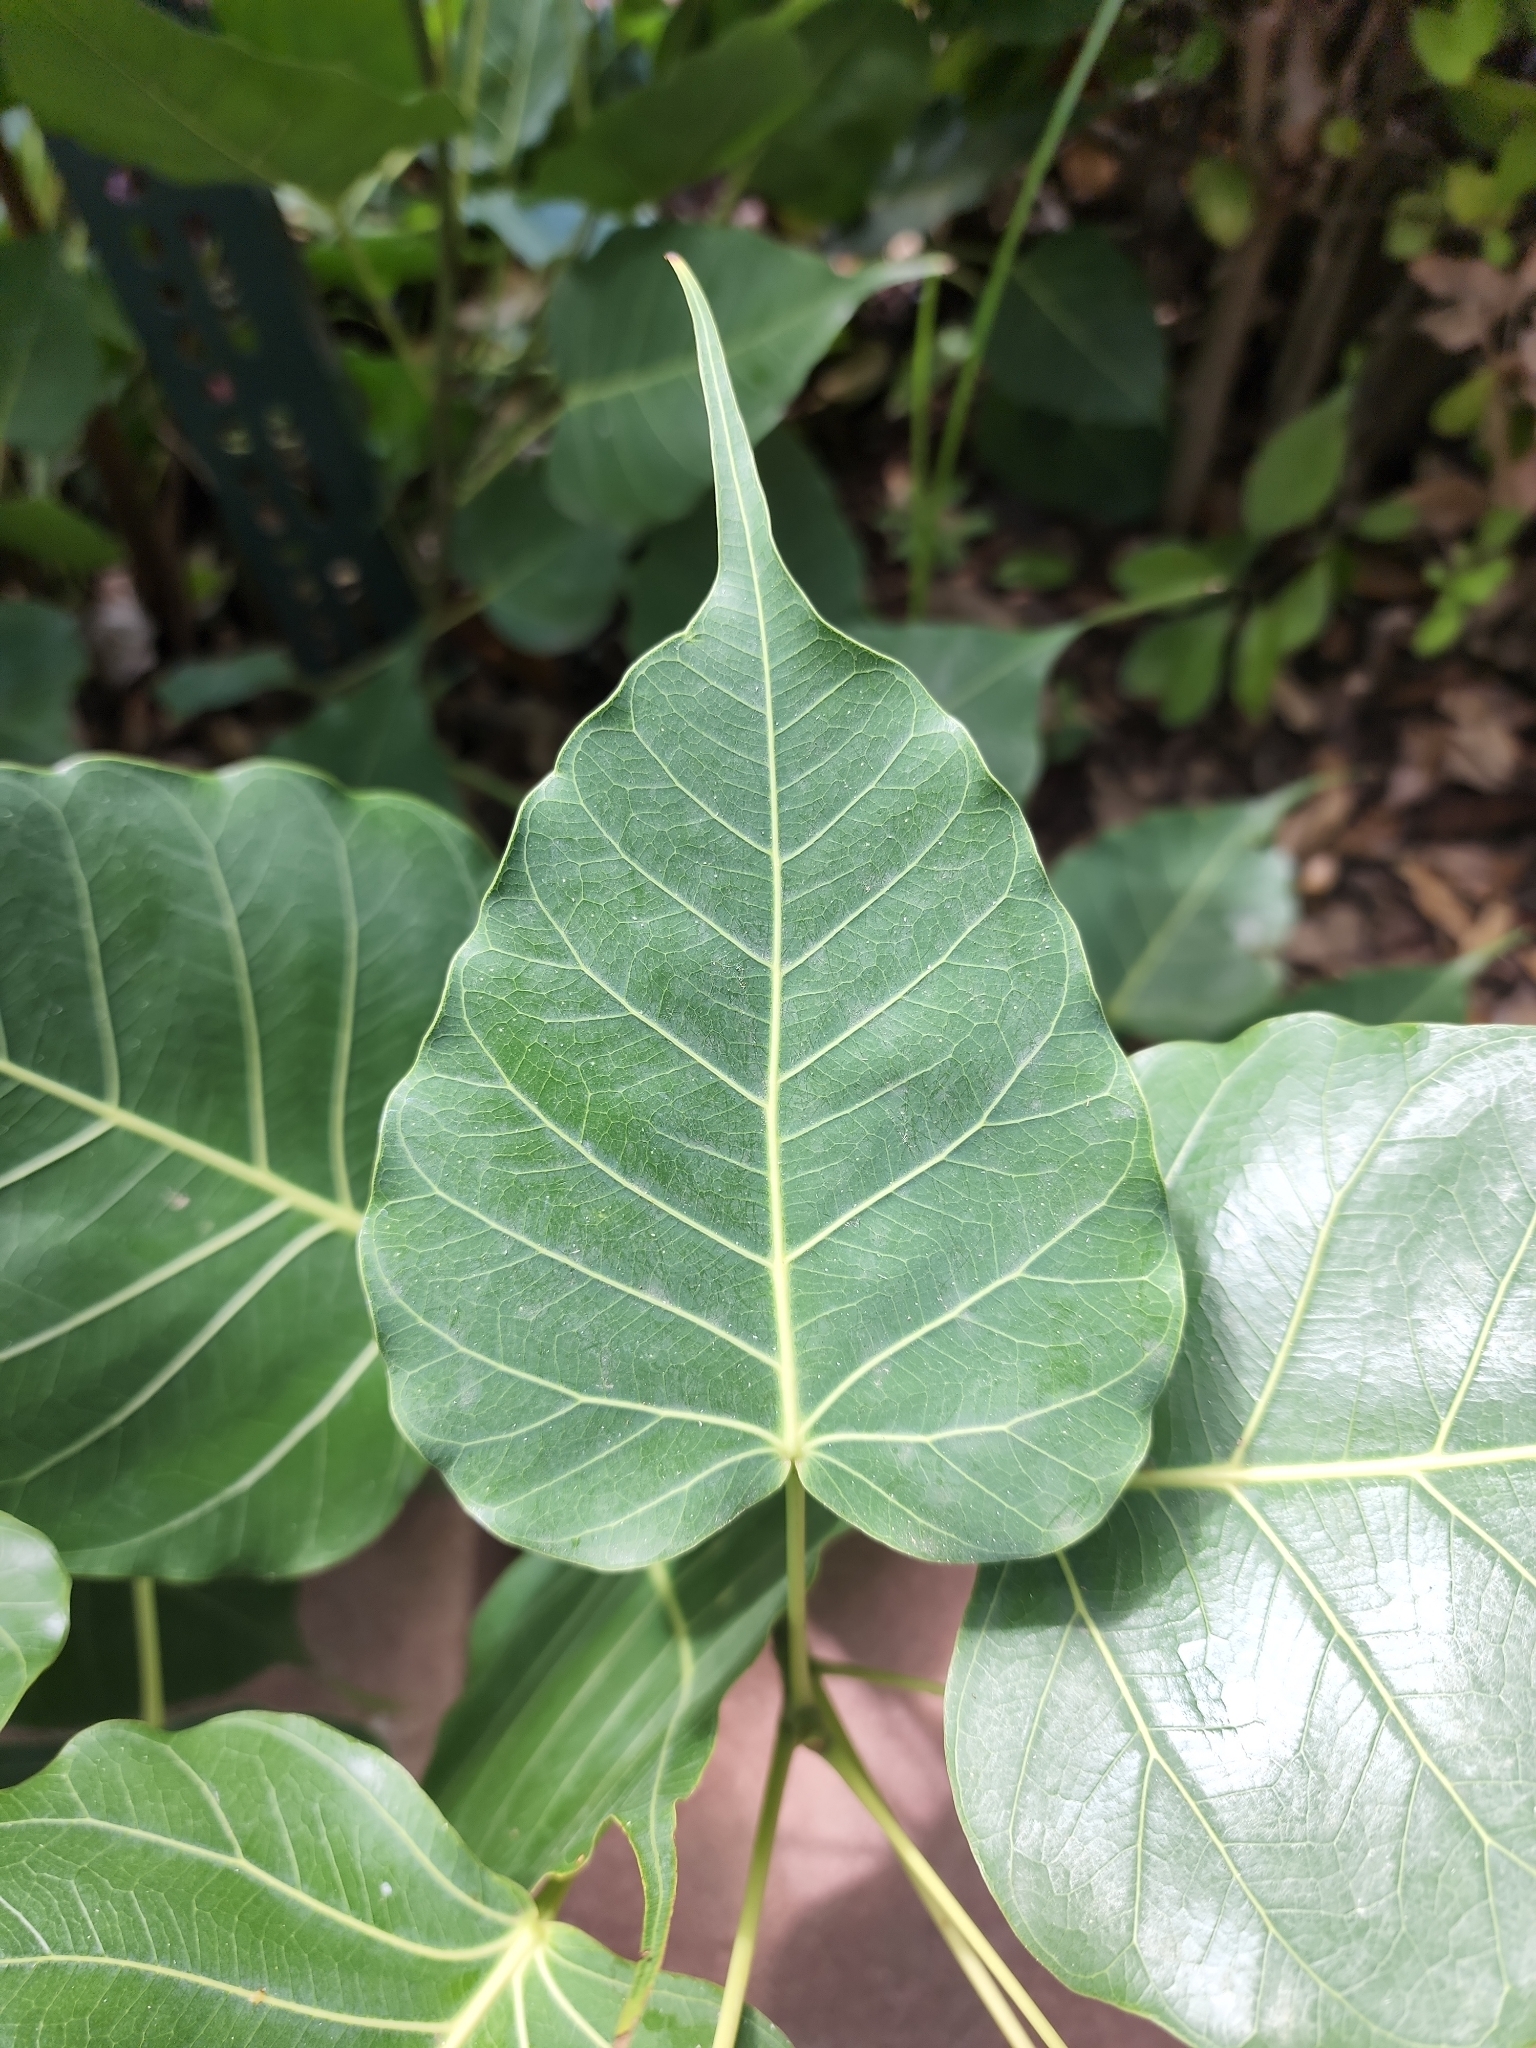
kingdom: Plantae
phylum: Tracheophyta
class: Magnoliopsida
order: Rosales
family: Moraceae
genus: Ficus
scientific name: Ficus religiosa
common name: Bodhi tree
